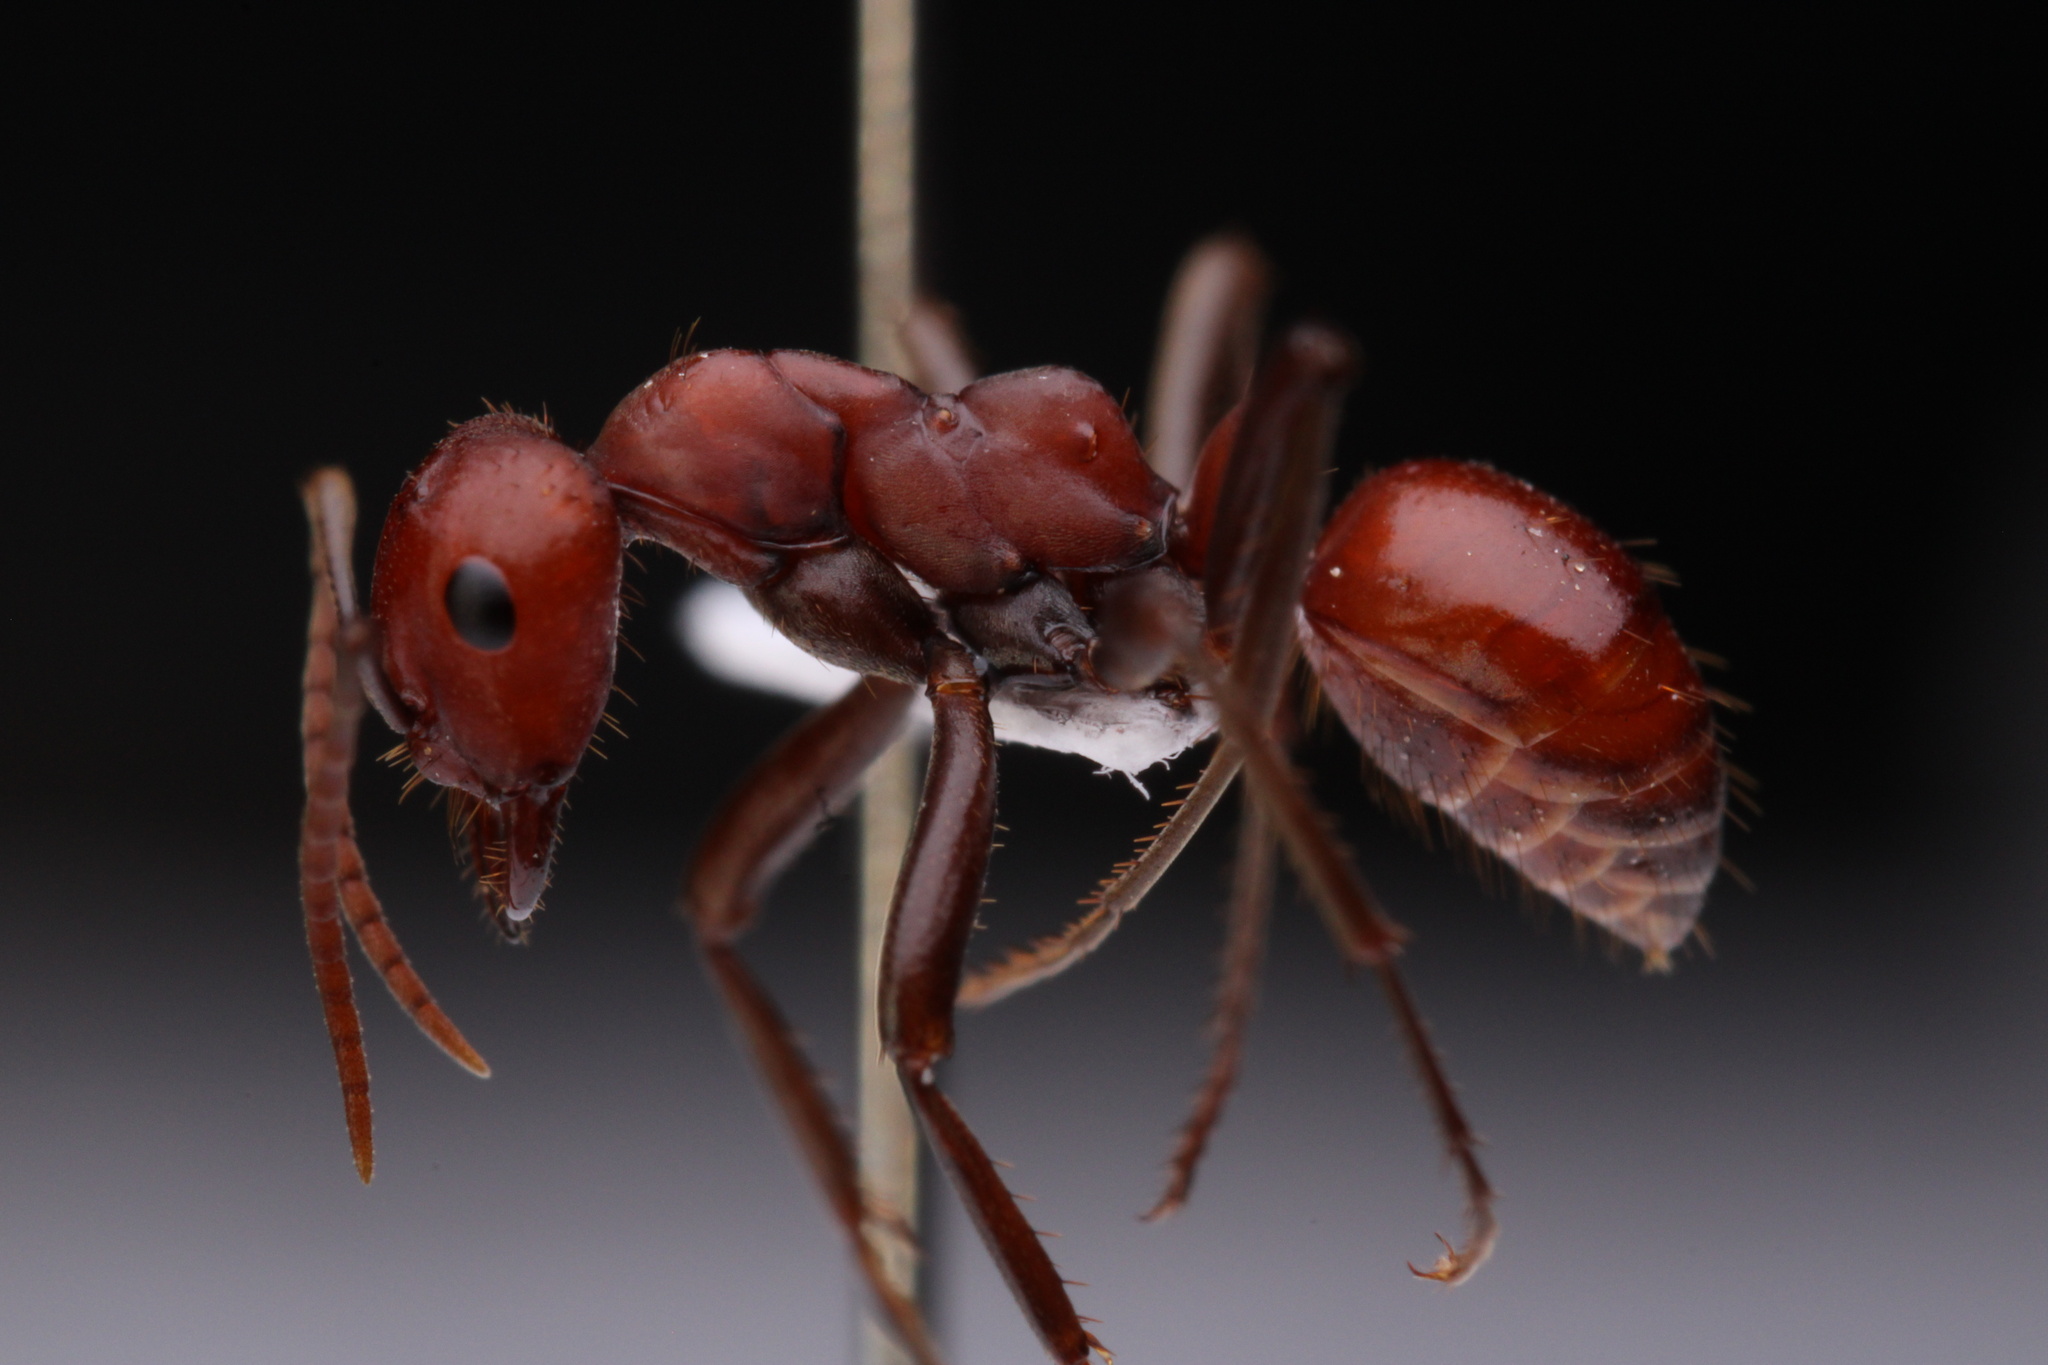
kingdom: Animalia
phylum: Arthropoda
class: Insecta
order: Hymenoptera
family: Formicidae
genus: Polyergus
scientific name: Polyergus sanwaldi
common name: Sanwald's amazon ant
